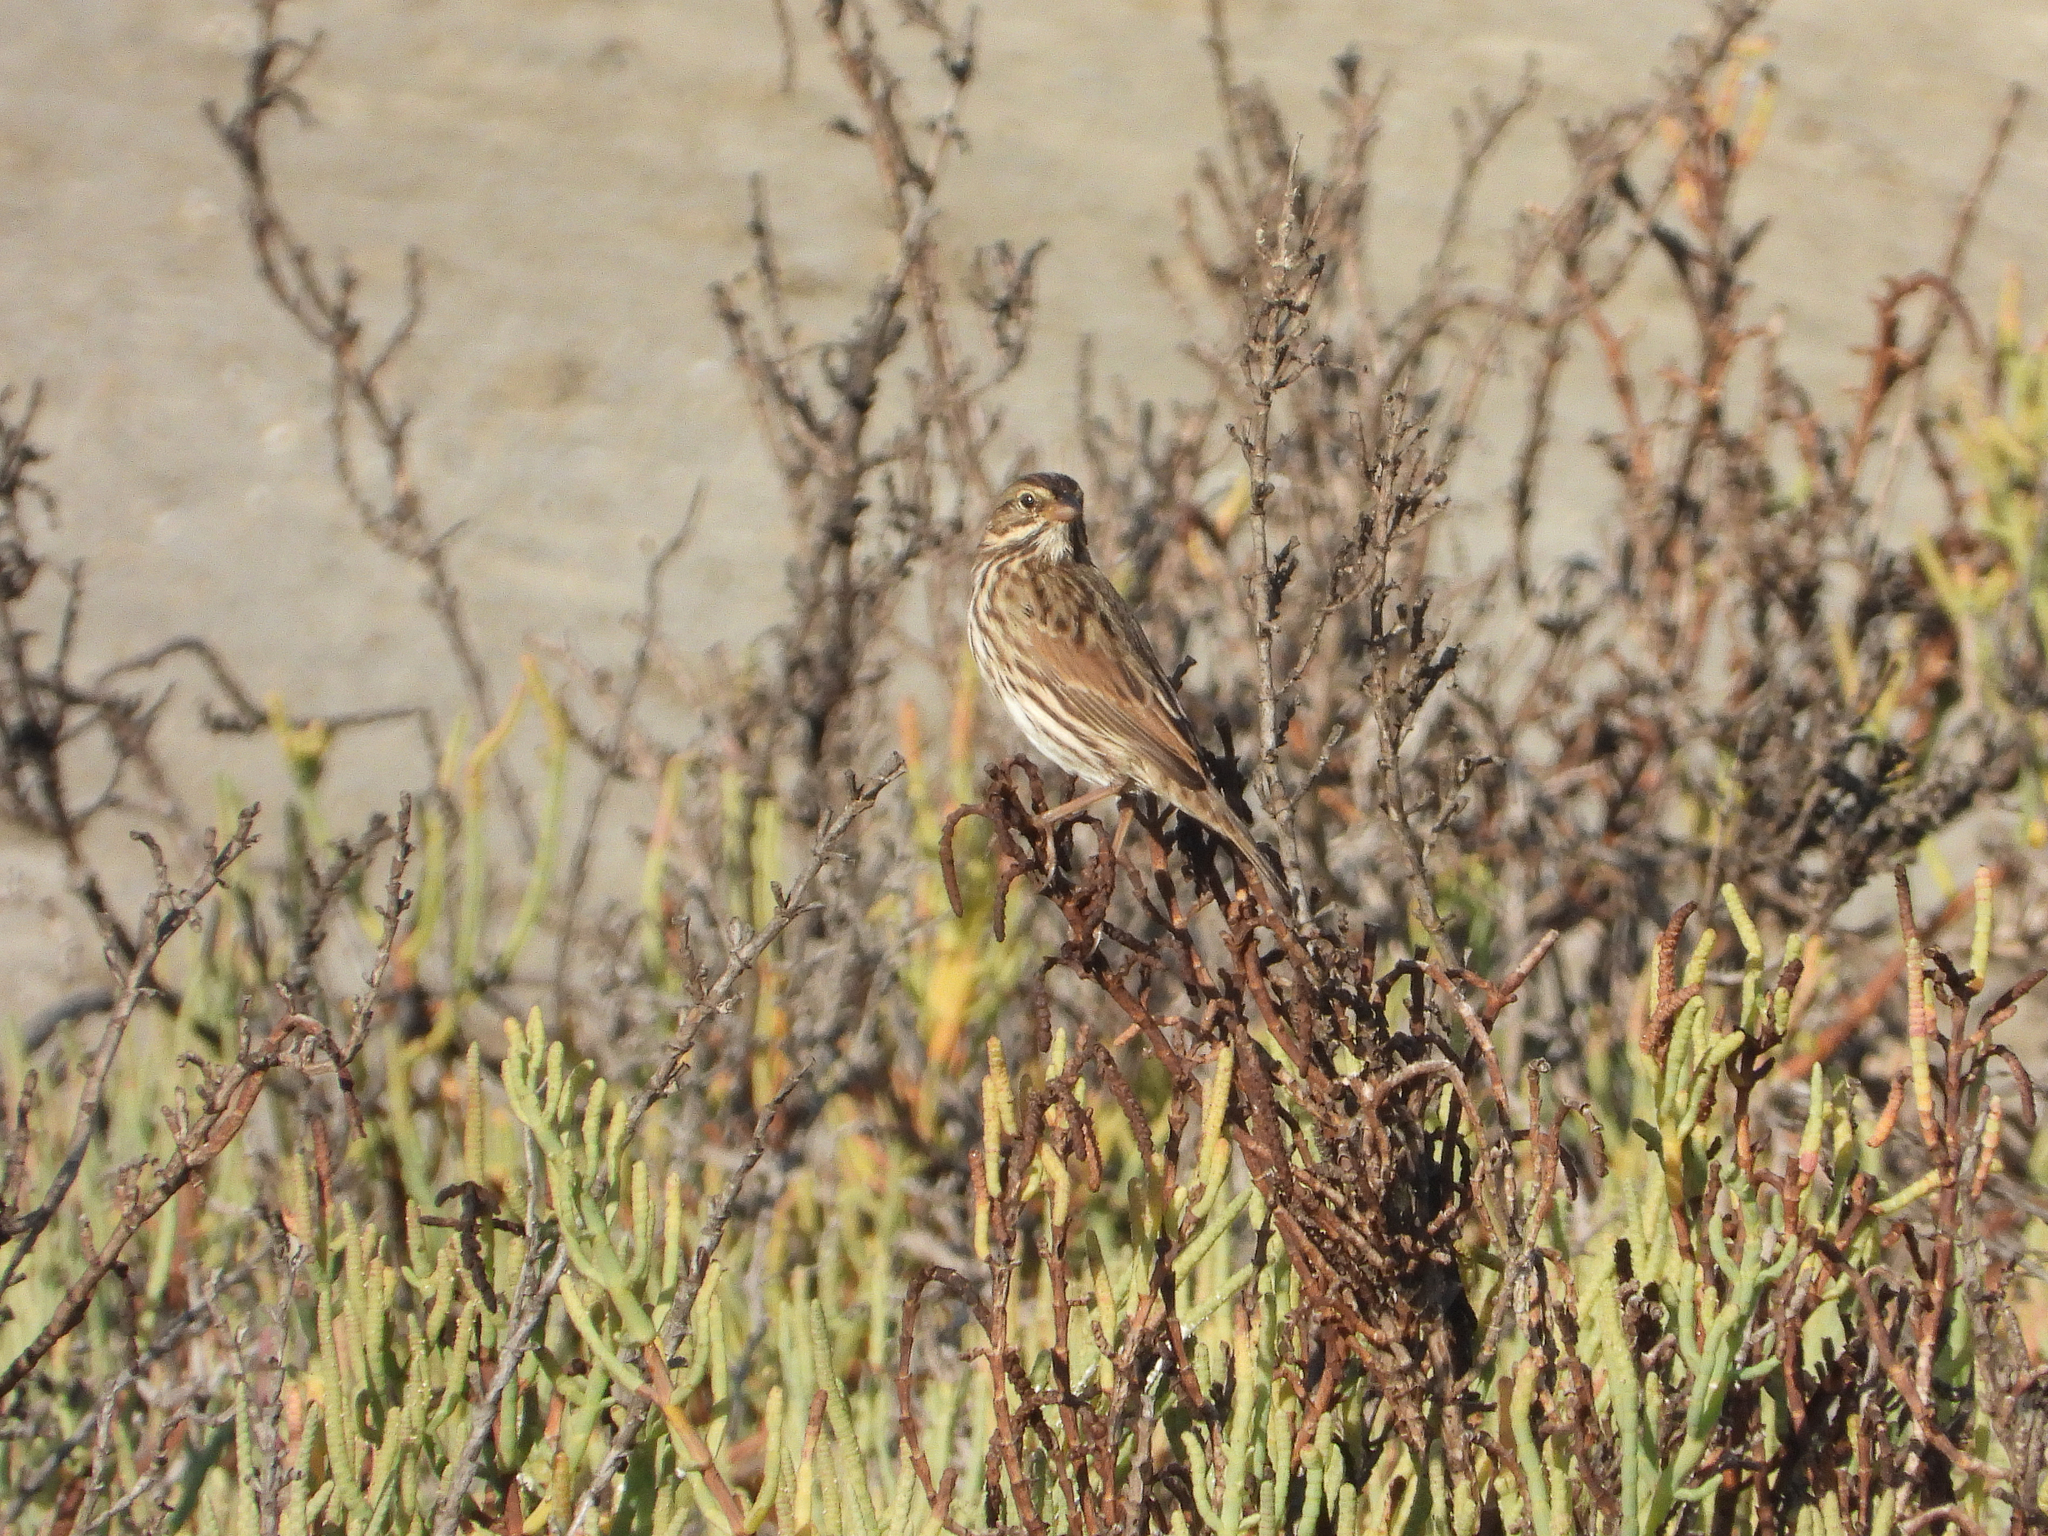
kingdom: Animalia
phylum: Chordata
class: Aves
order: Passeriformes
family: Passerellidae
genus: Passerculus
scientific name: Passerculus sandwichensis
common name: Savannah sparrow
